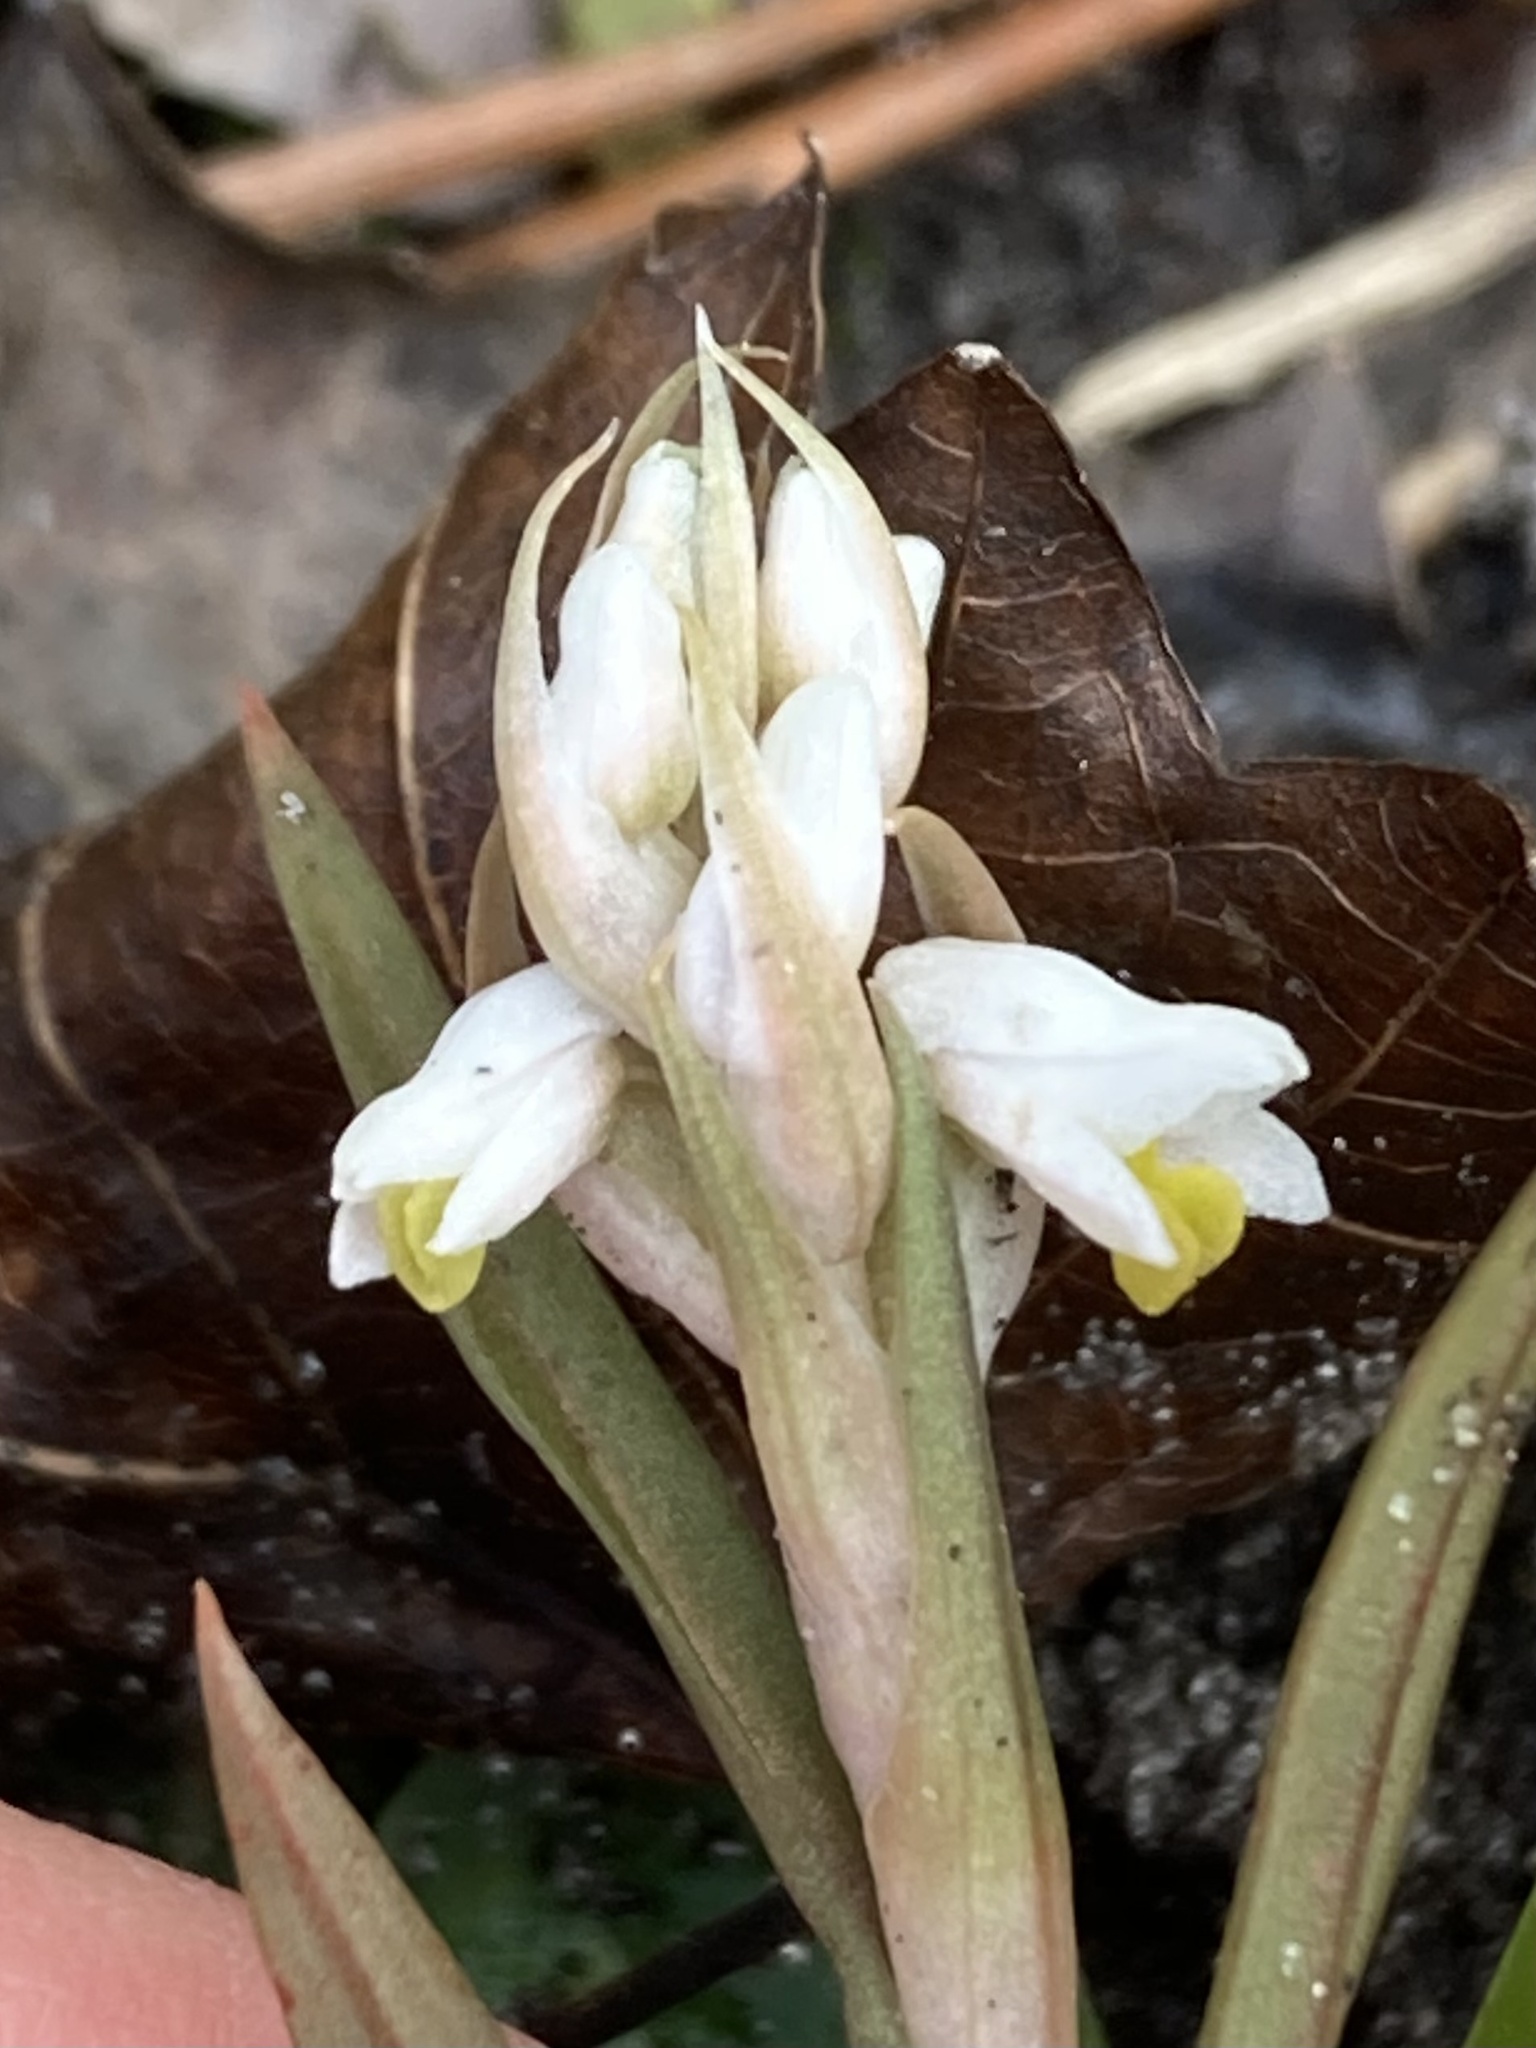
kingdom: Plantae
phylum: Tracheophyta
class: Liliopsida
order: Asparagales
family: Orchidaceae
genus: Zeuxine
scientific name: Zeuxine strateumatica
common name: Soldier's orchid
